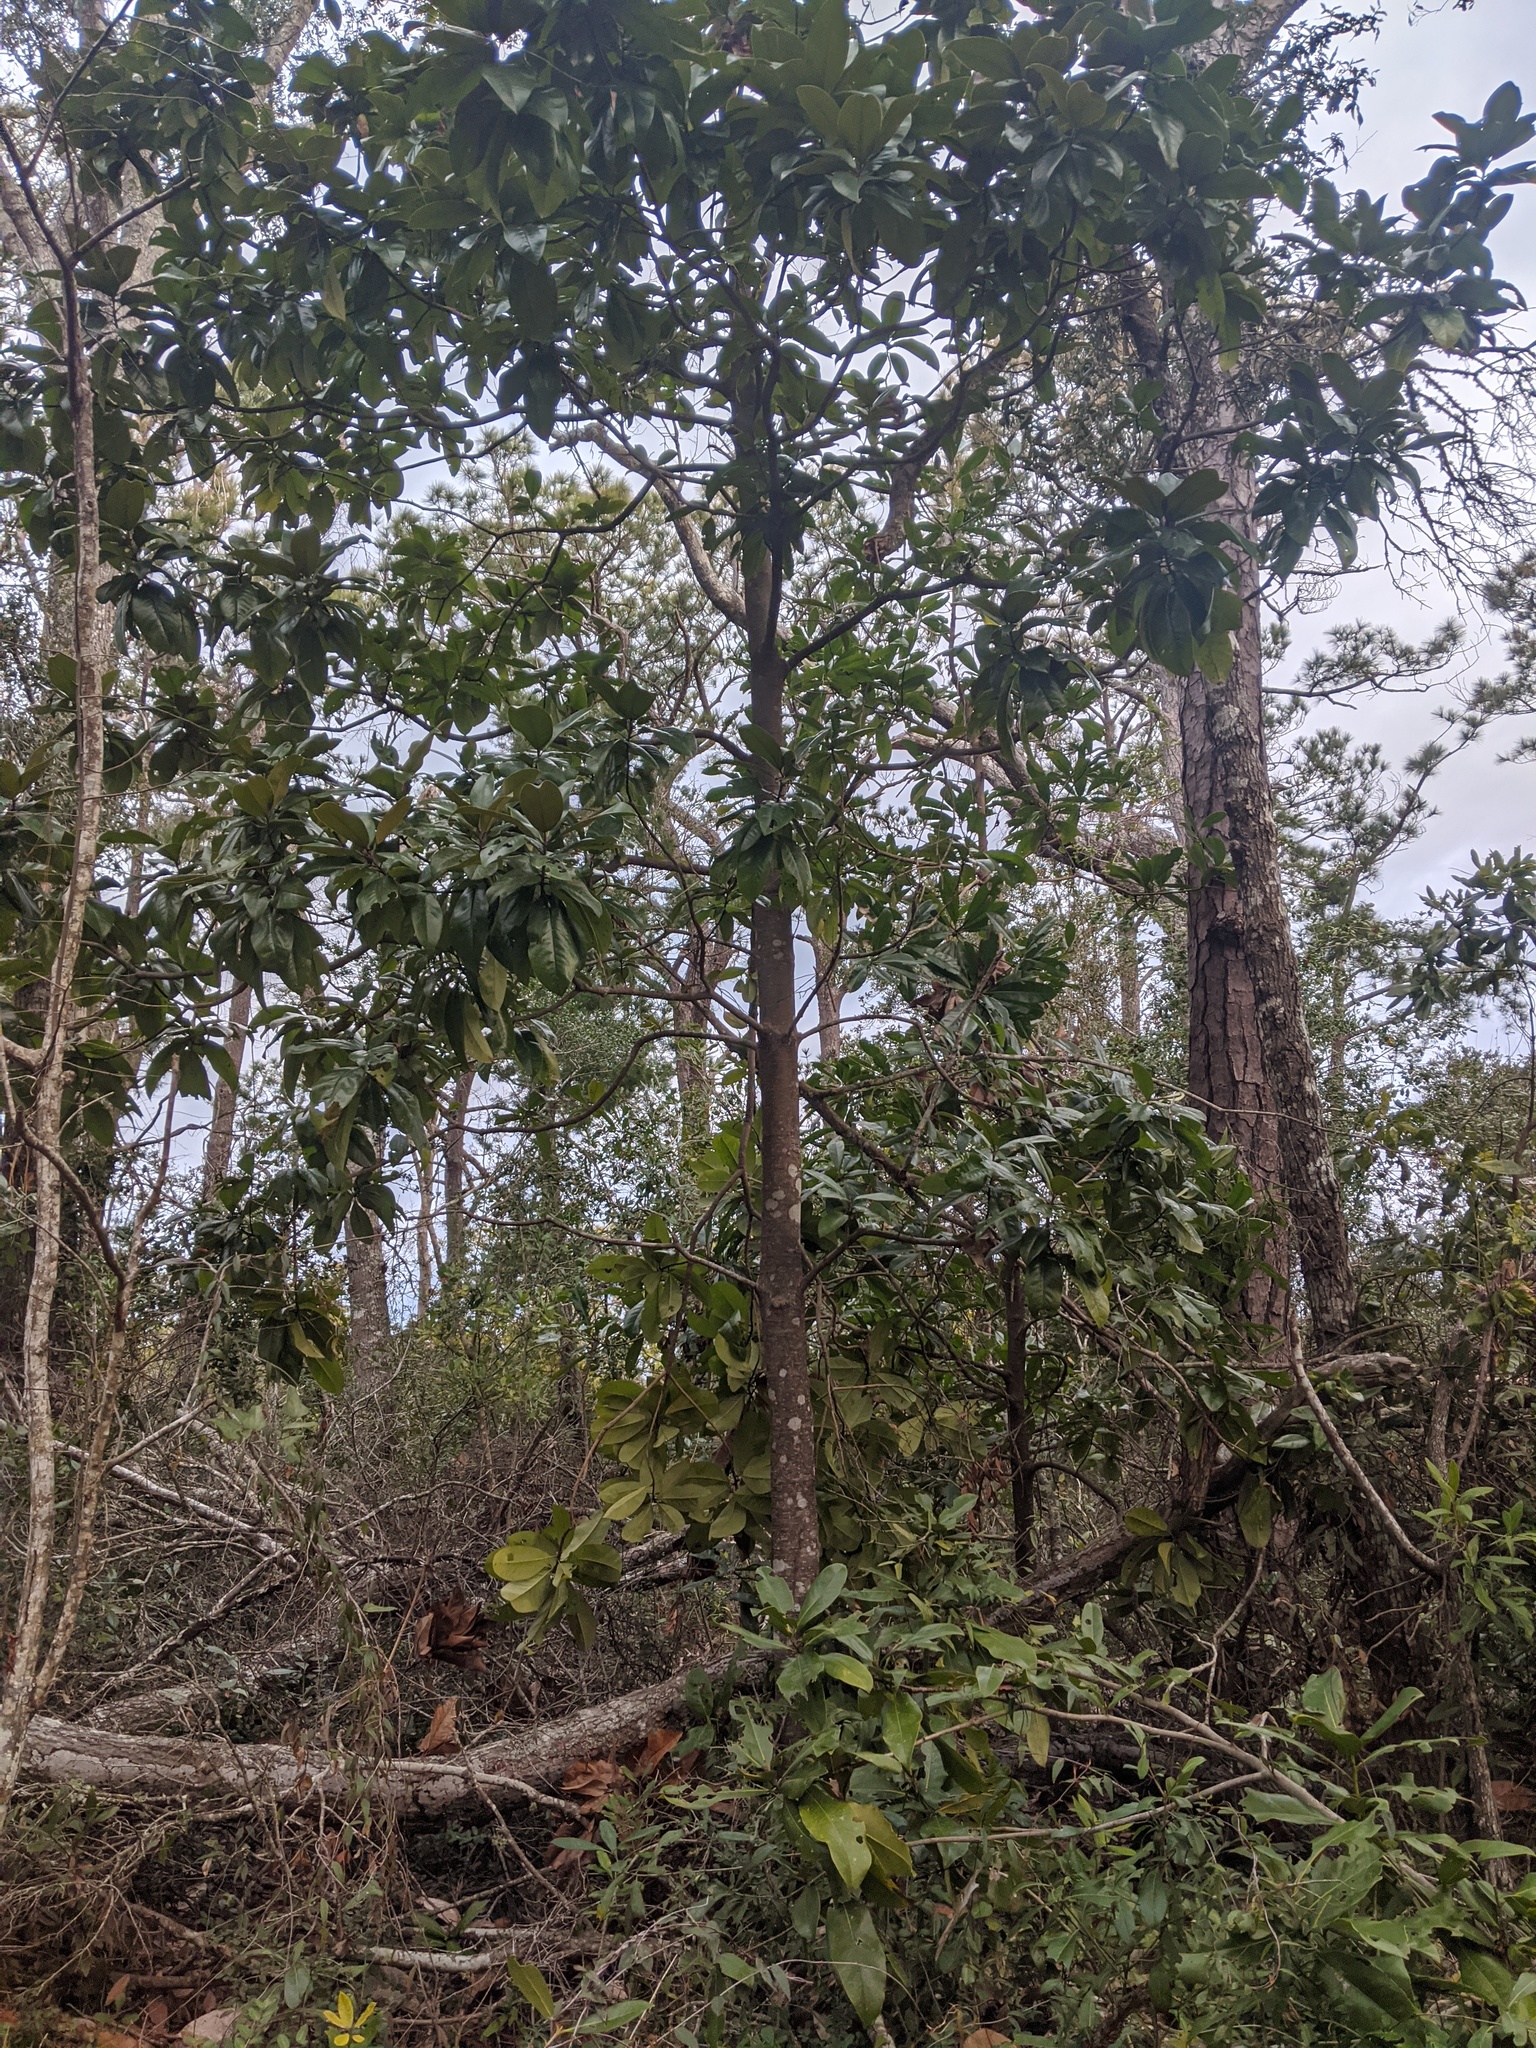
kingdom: Plantae
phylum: Tracheophyta
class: Magnoliopsida
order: Magnoliales
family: Magnoliaceae
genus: Magnolia
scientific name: Magnolia grandiflora
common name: Southern magnolia
